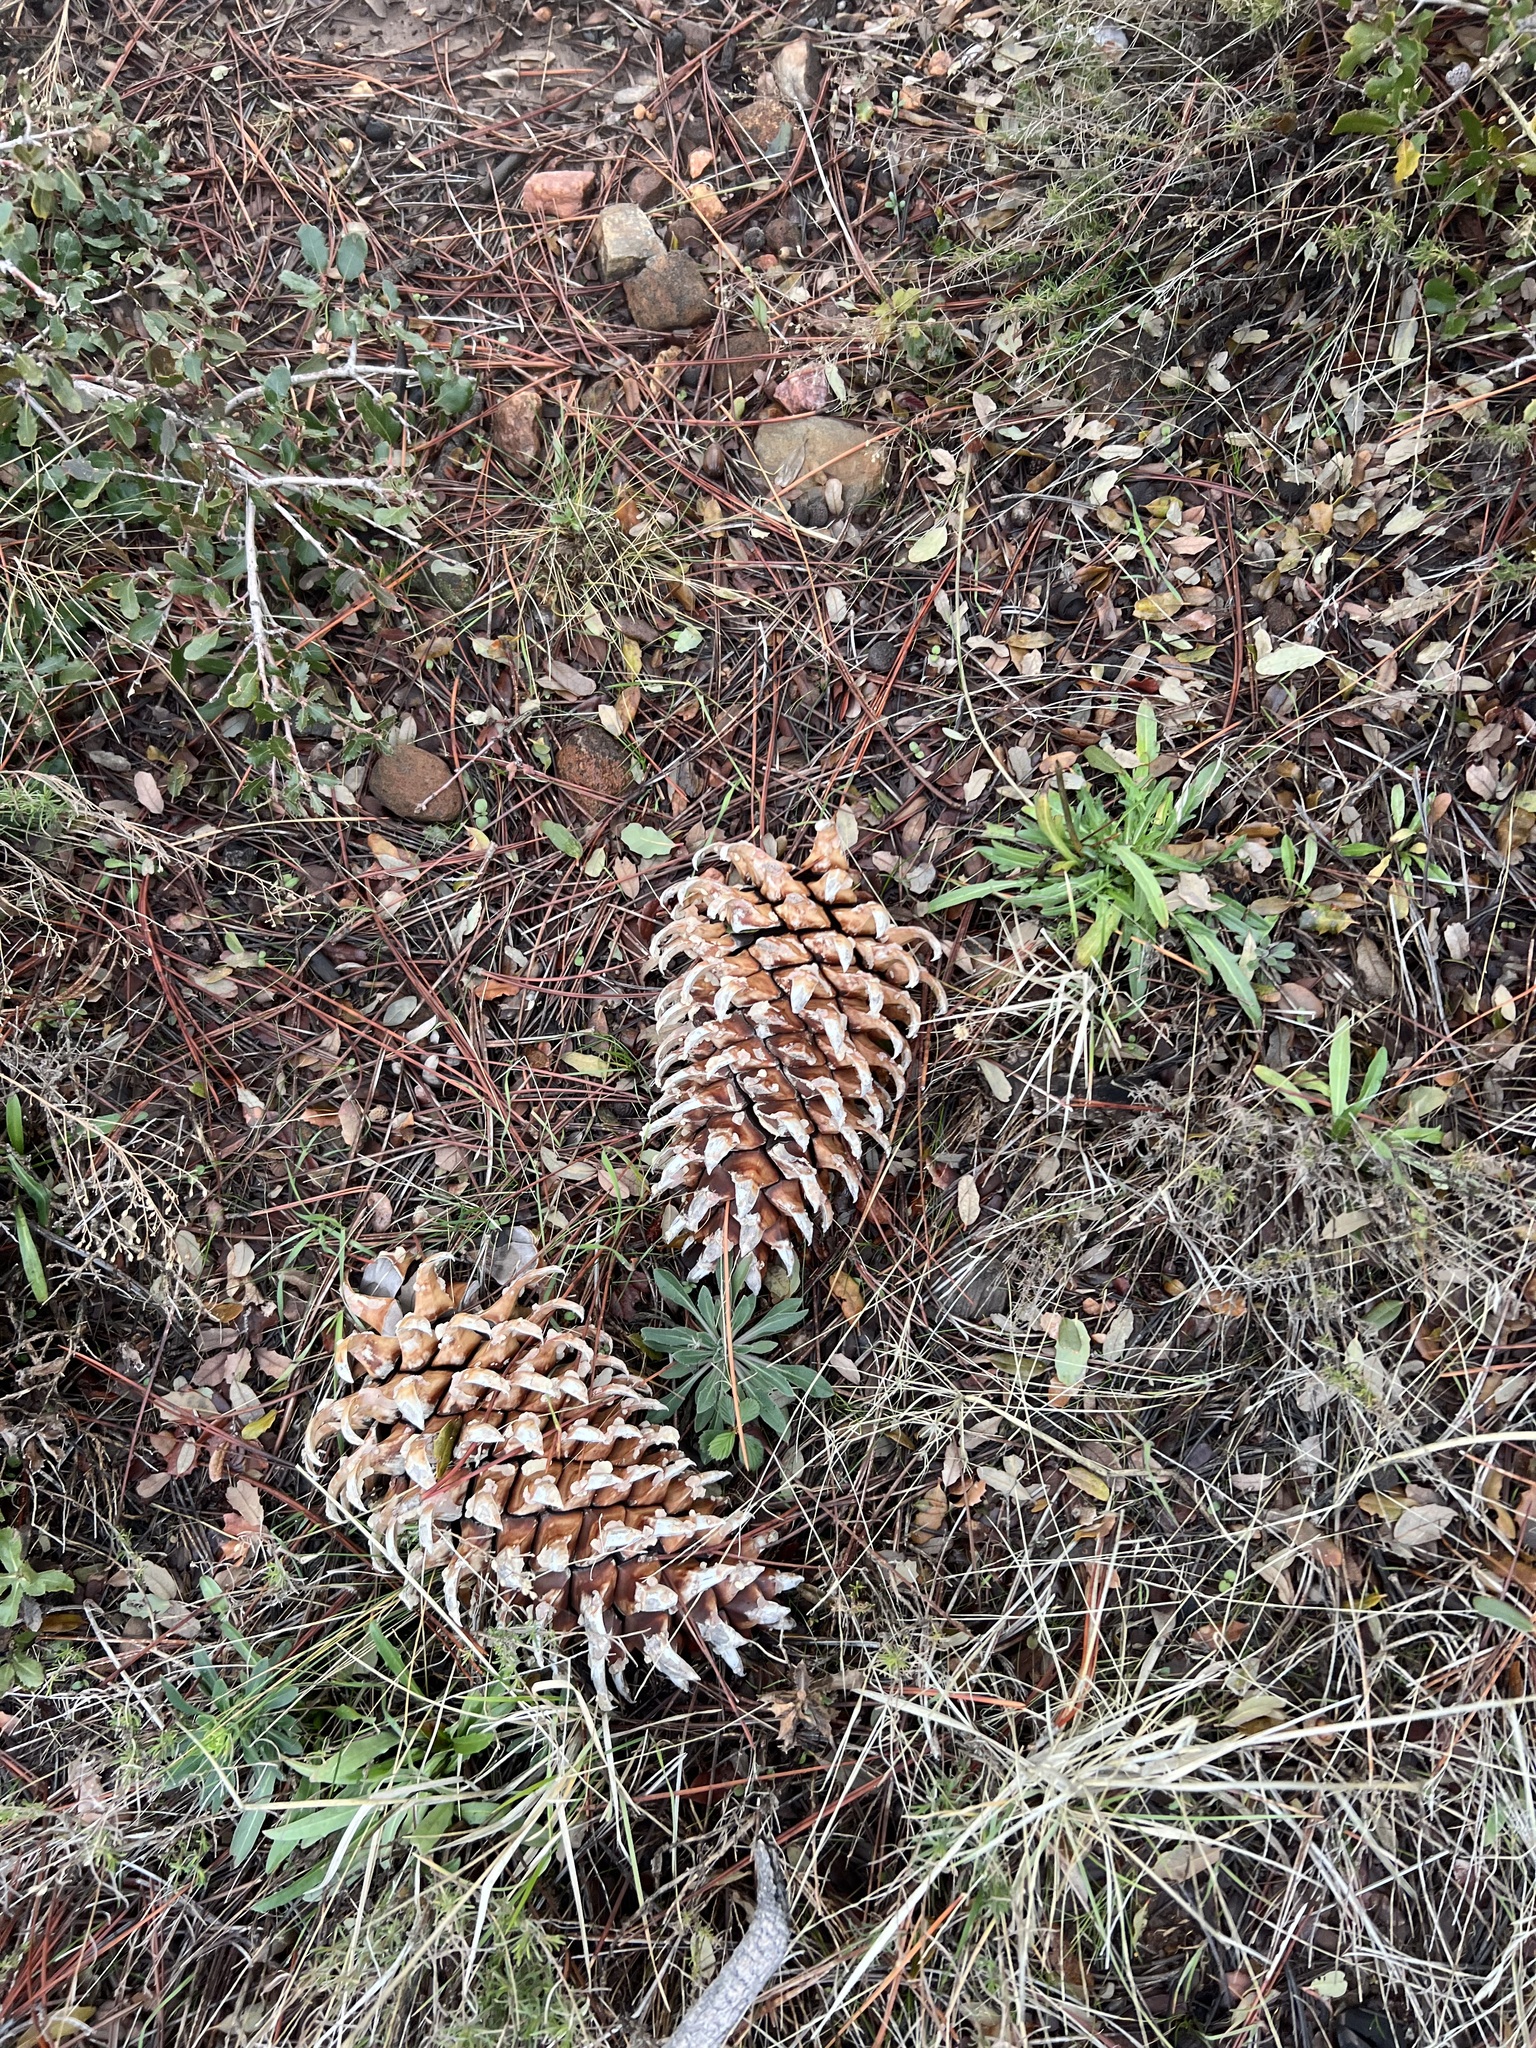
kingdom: Plantae
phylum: Tracheophyta
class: Pinopsida
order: Pinales
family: Pinaceae
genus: Pinus
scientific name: Pinus coulteri
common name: Coulter pine
